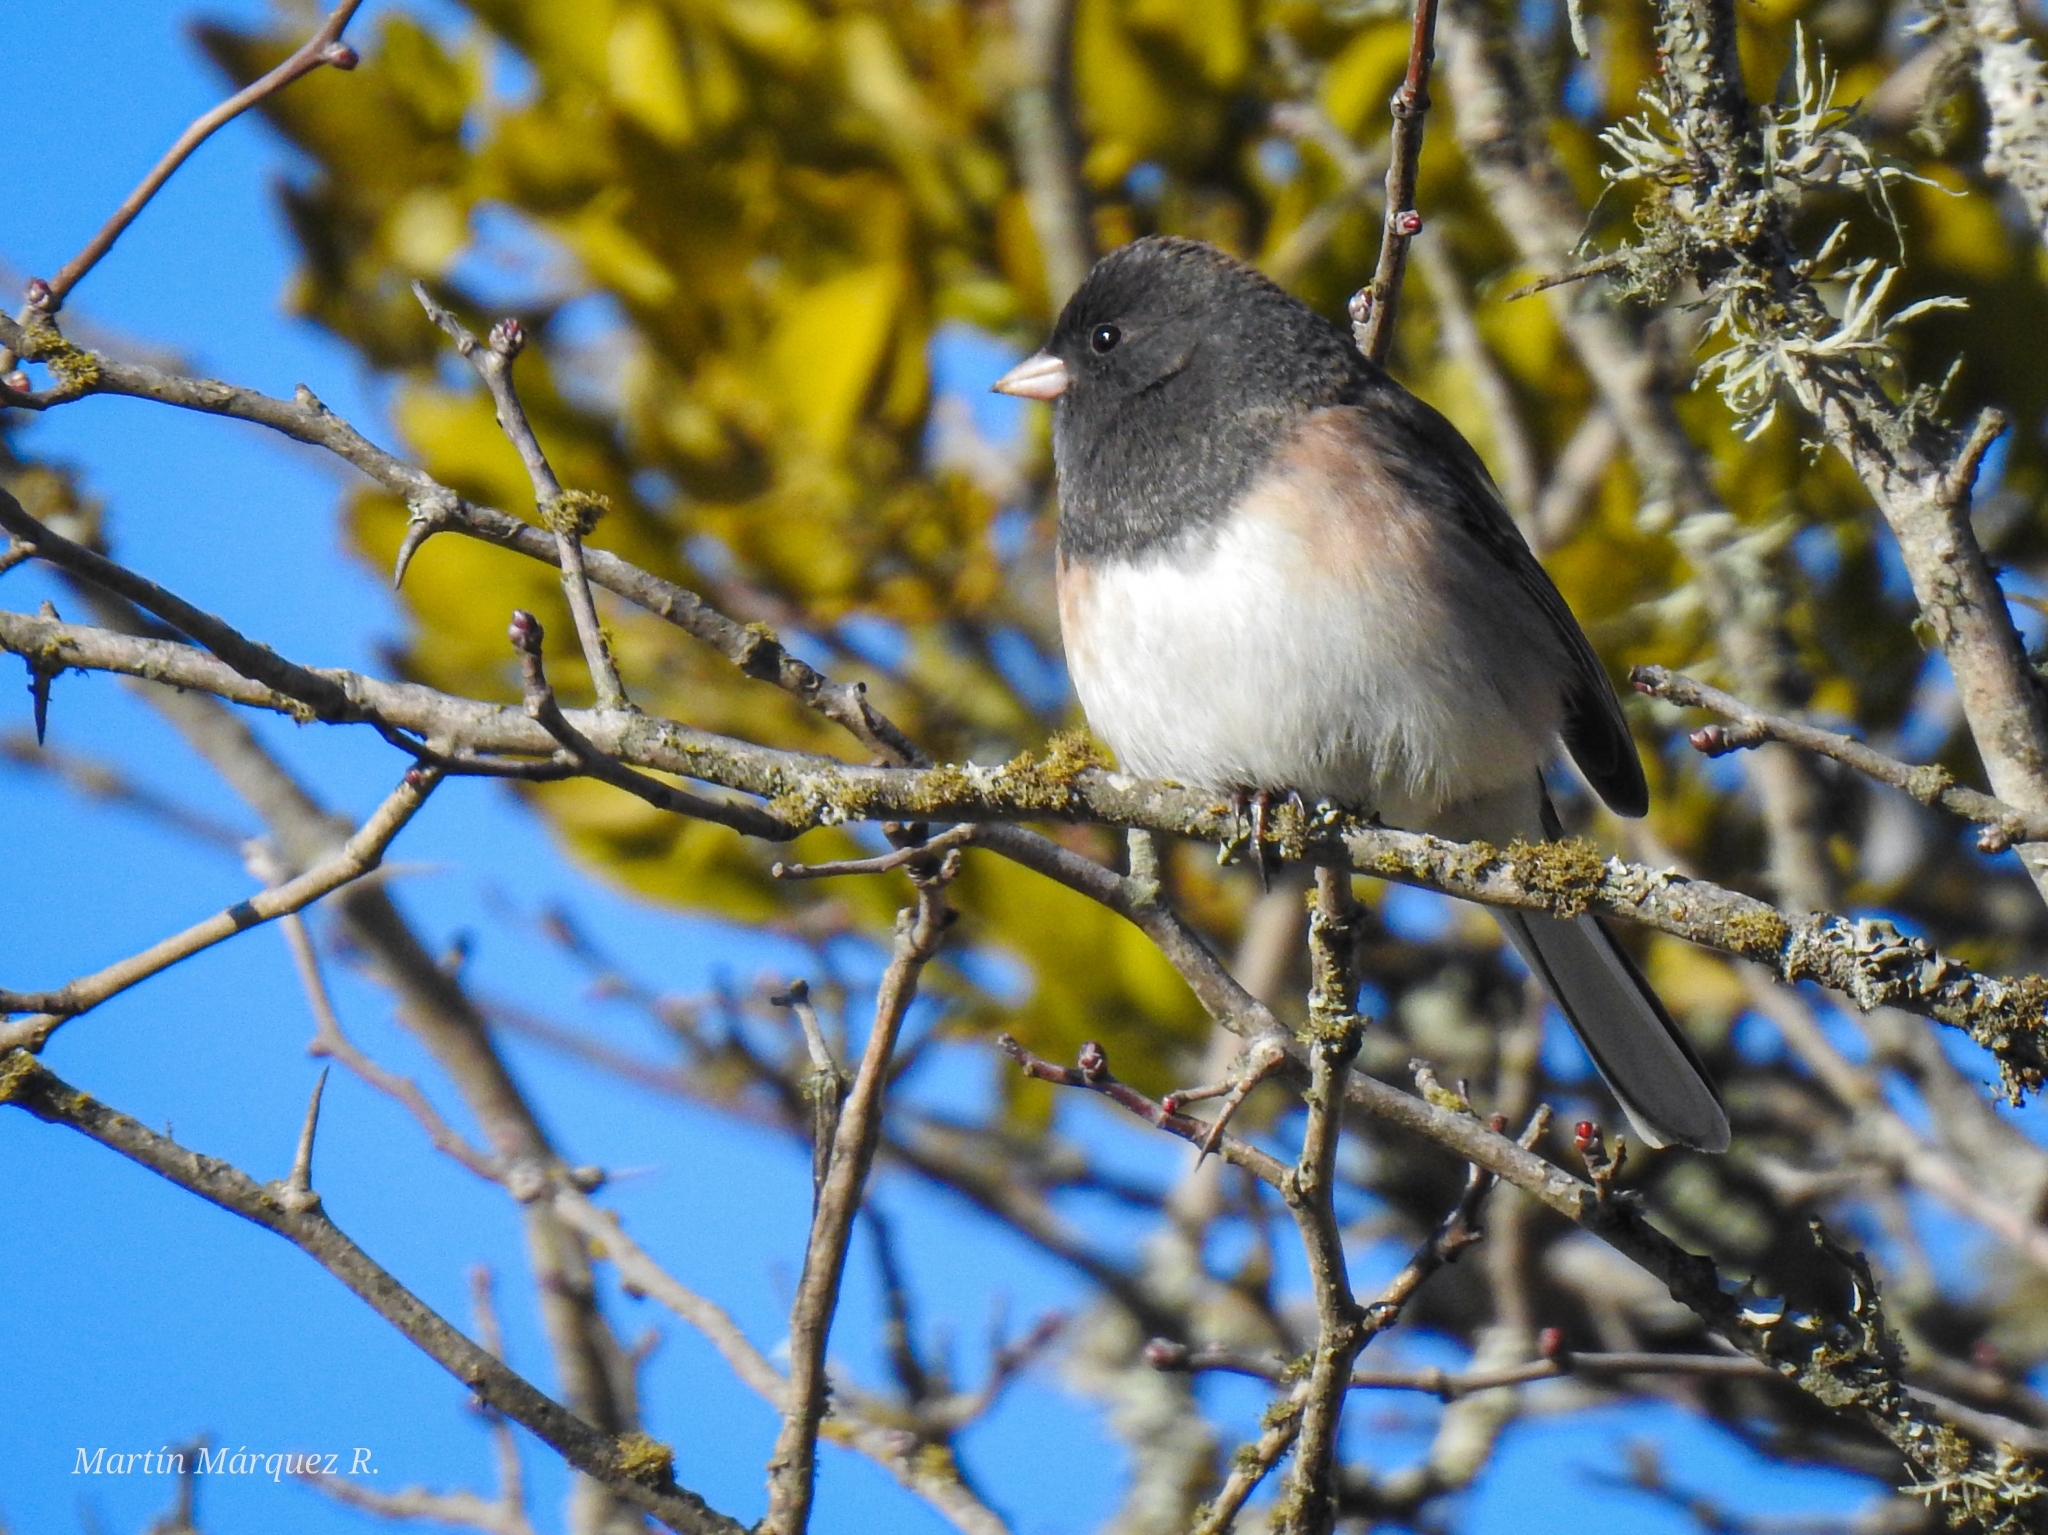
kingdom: Animalia
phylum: Chordata
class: Aves
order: Passeriformes
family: Passerellidae
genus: Junco
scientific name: Junco hyemalis
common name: Dark-eyed junco
